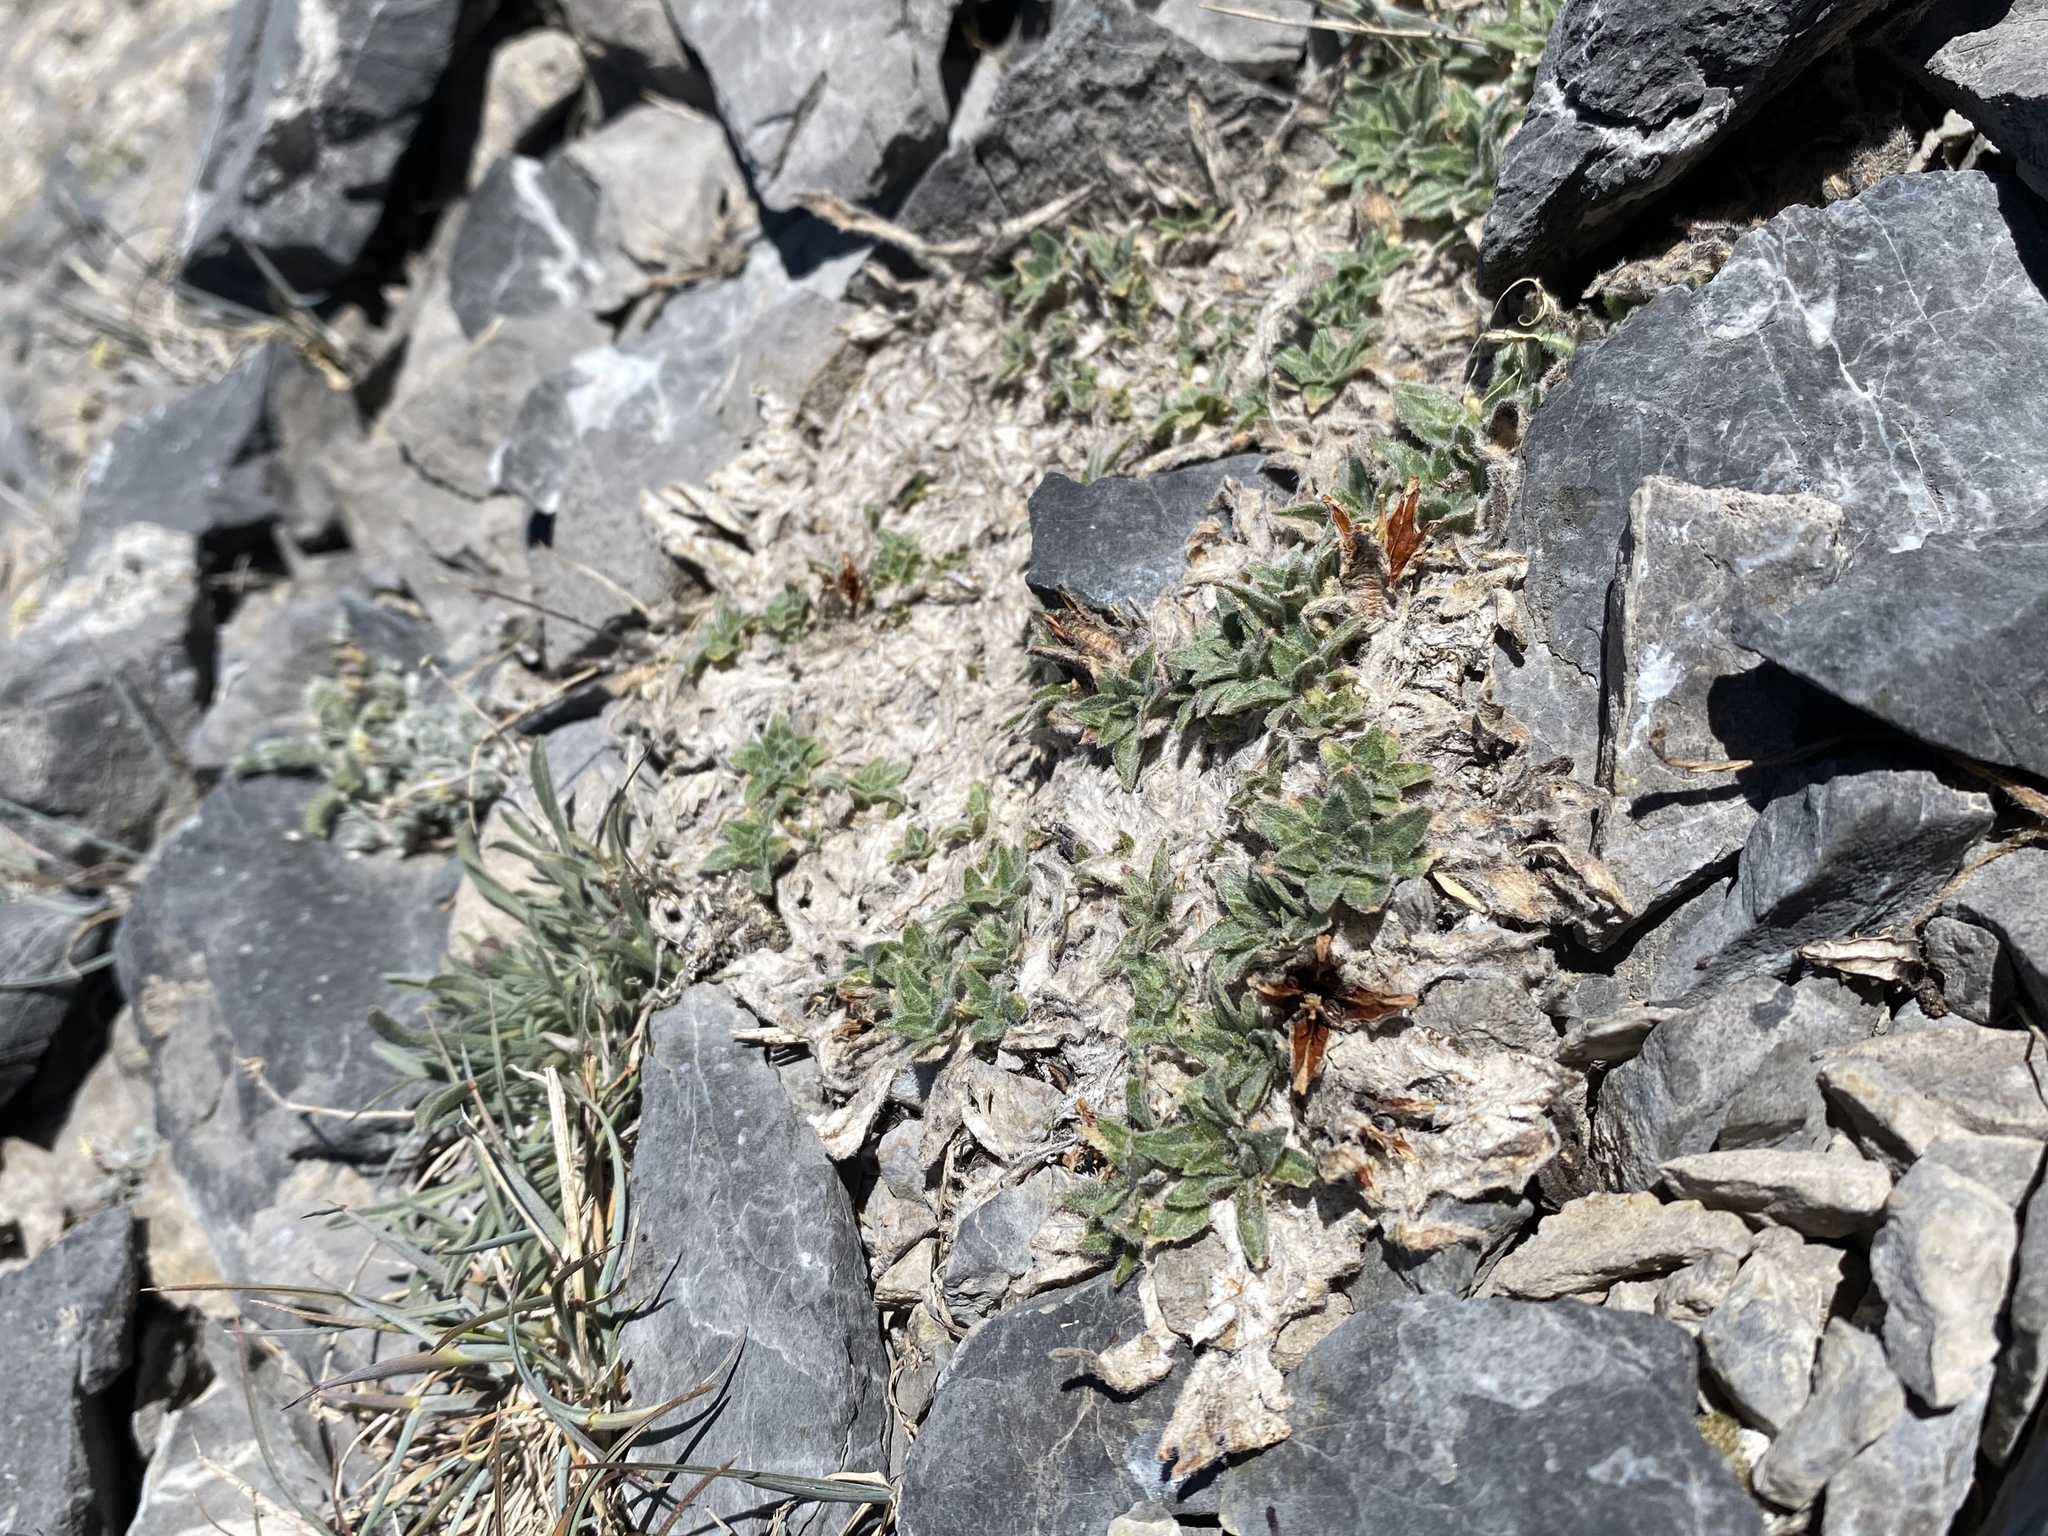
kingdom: Plantae
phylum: Tracheophyta
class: Magnoliopsida
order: Myrtales
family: Onagraceae
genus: Oenothera
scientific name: Oenothera cespitosa
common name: Tufted evening-primrose
